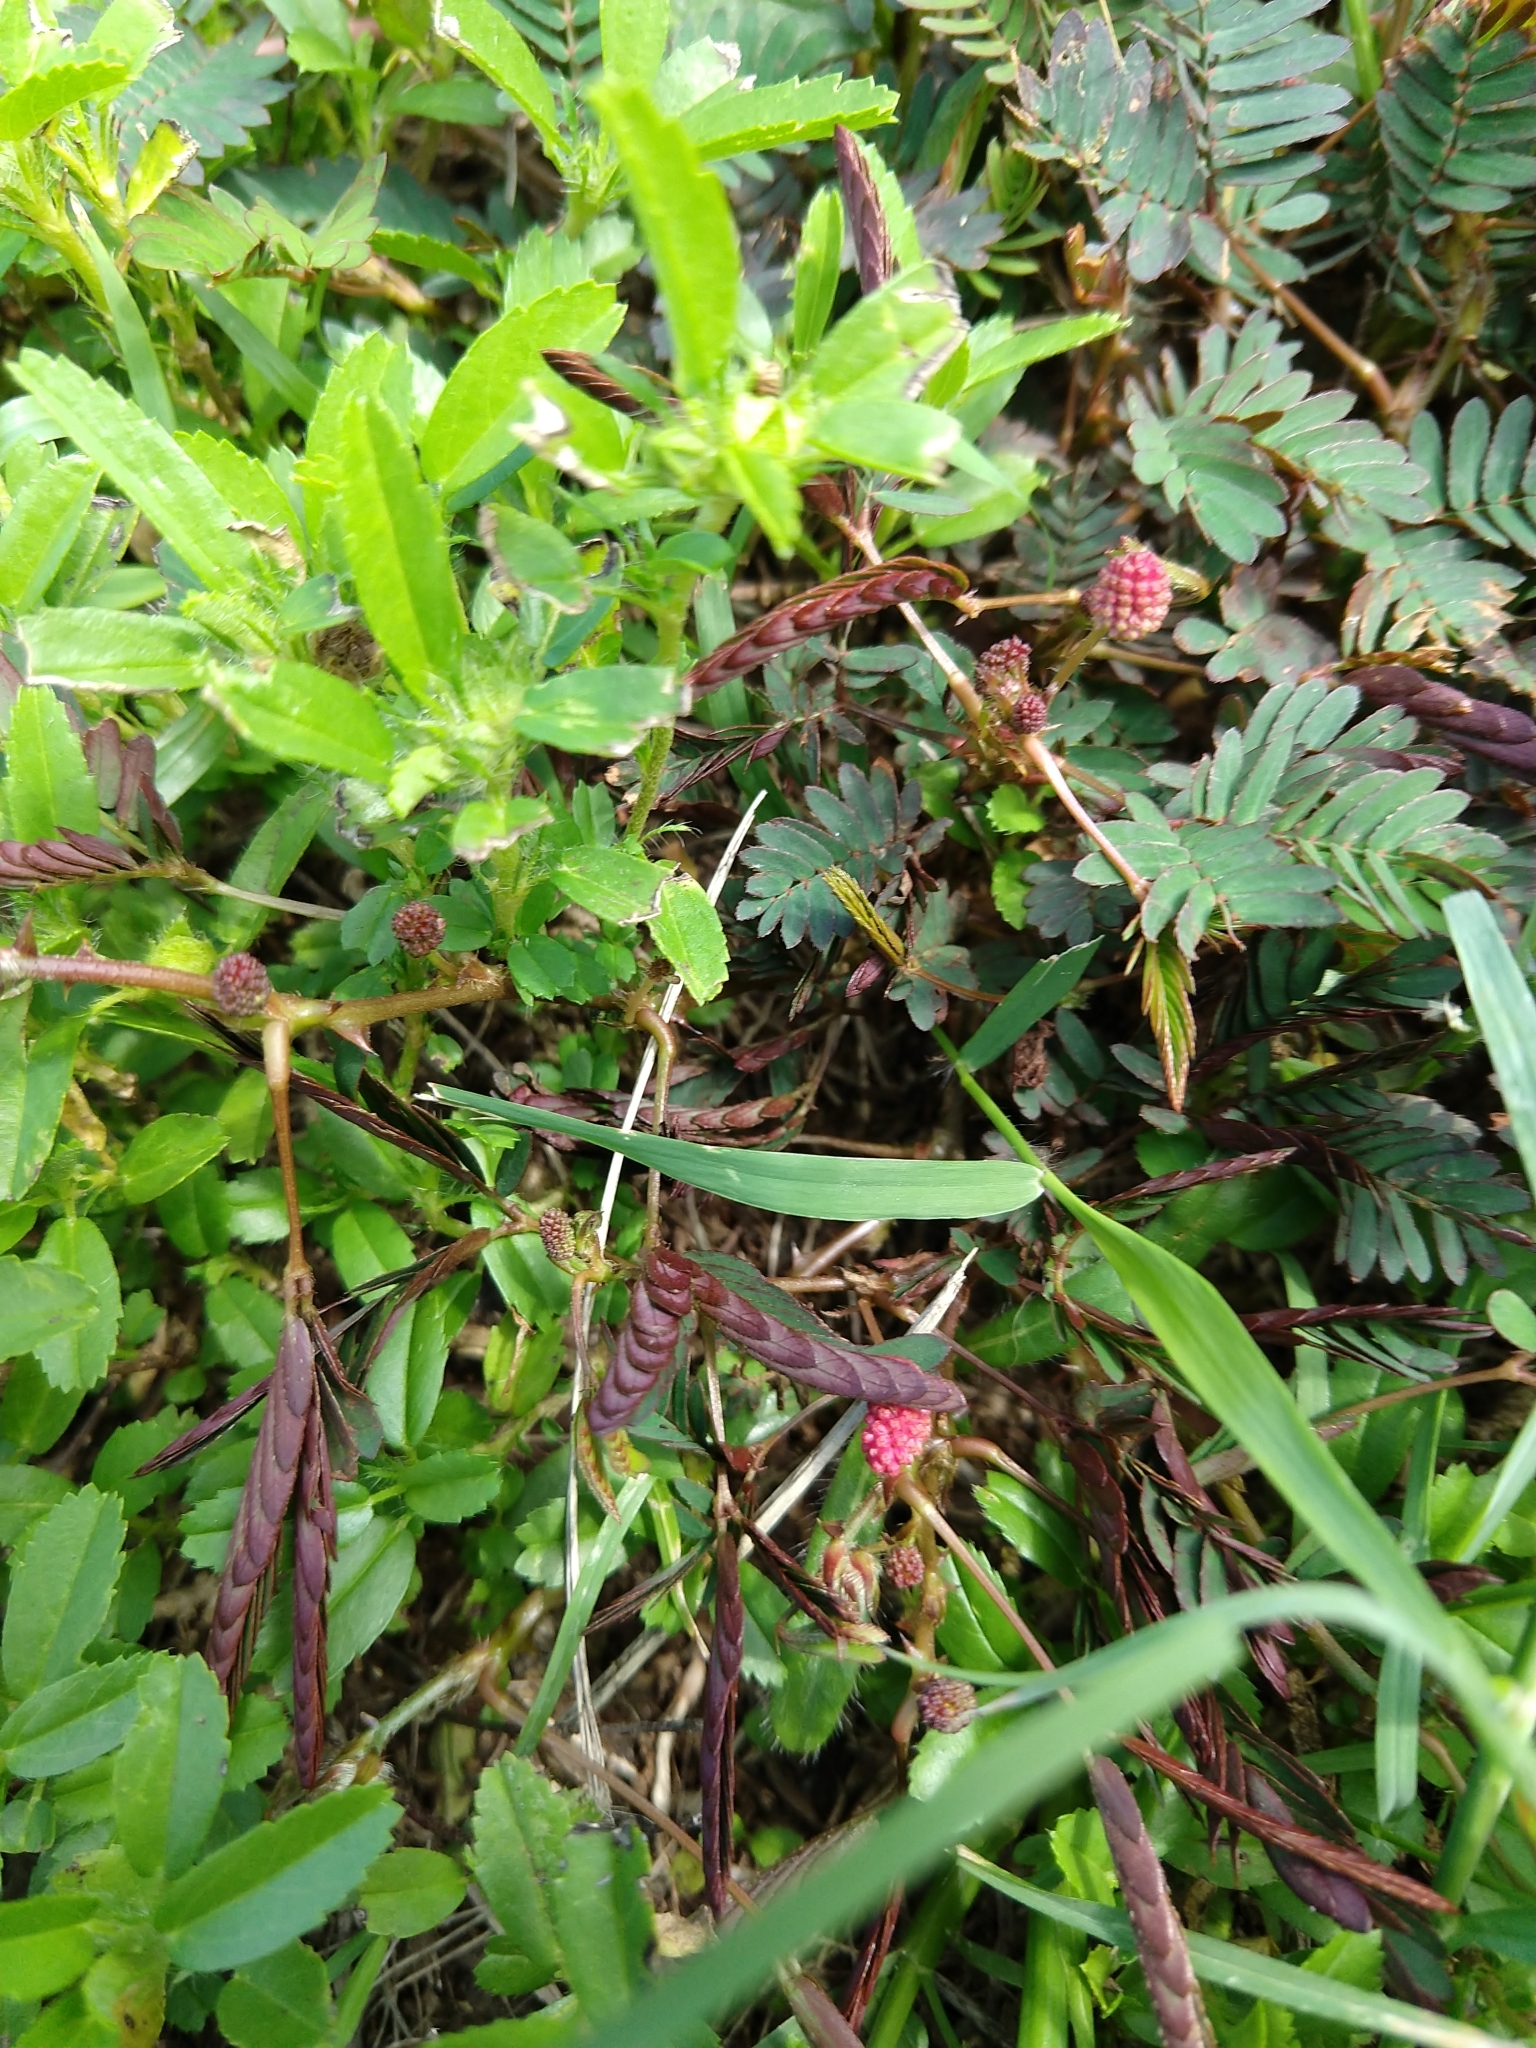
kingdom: Plantae
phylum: Tracheophyta
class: Magnoliopsida
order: Fabales
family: Fabaceae
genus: Mimosa
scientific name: Mimosa pudica
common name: Sensitive plant
